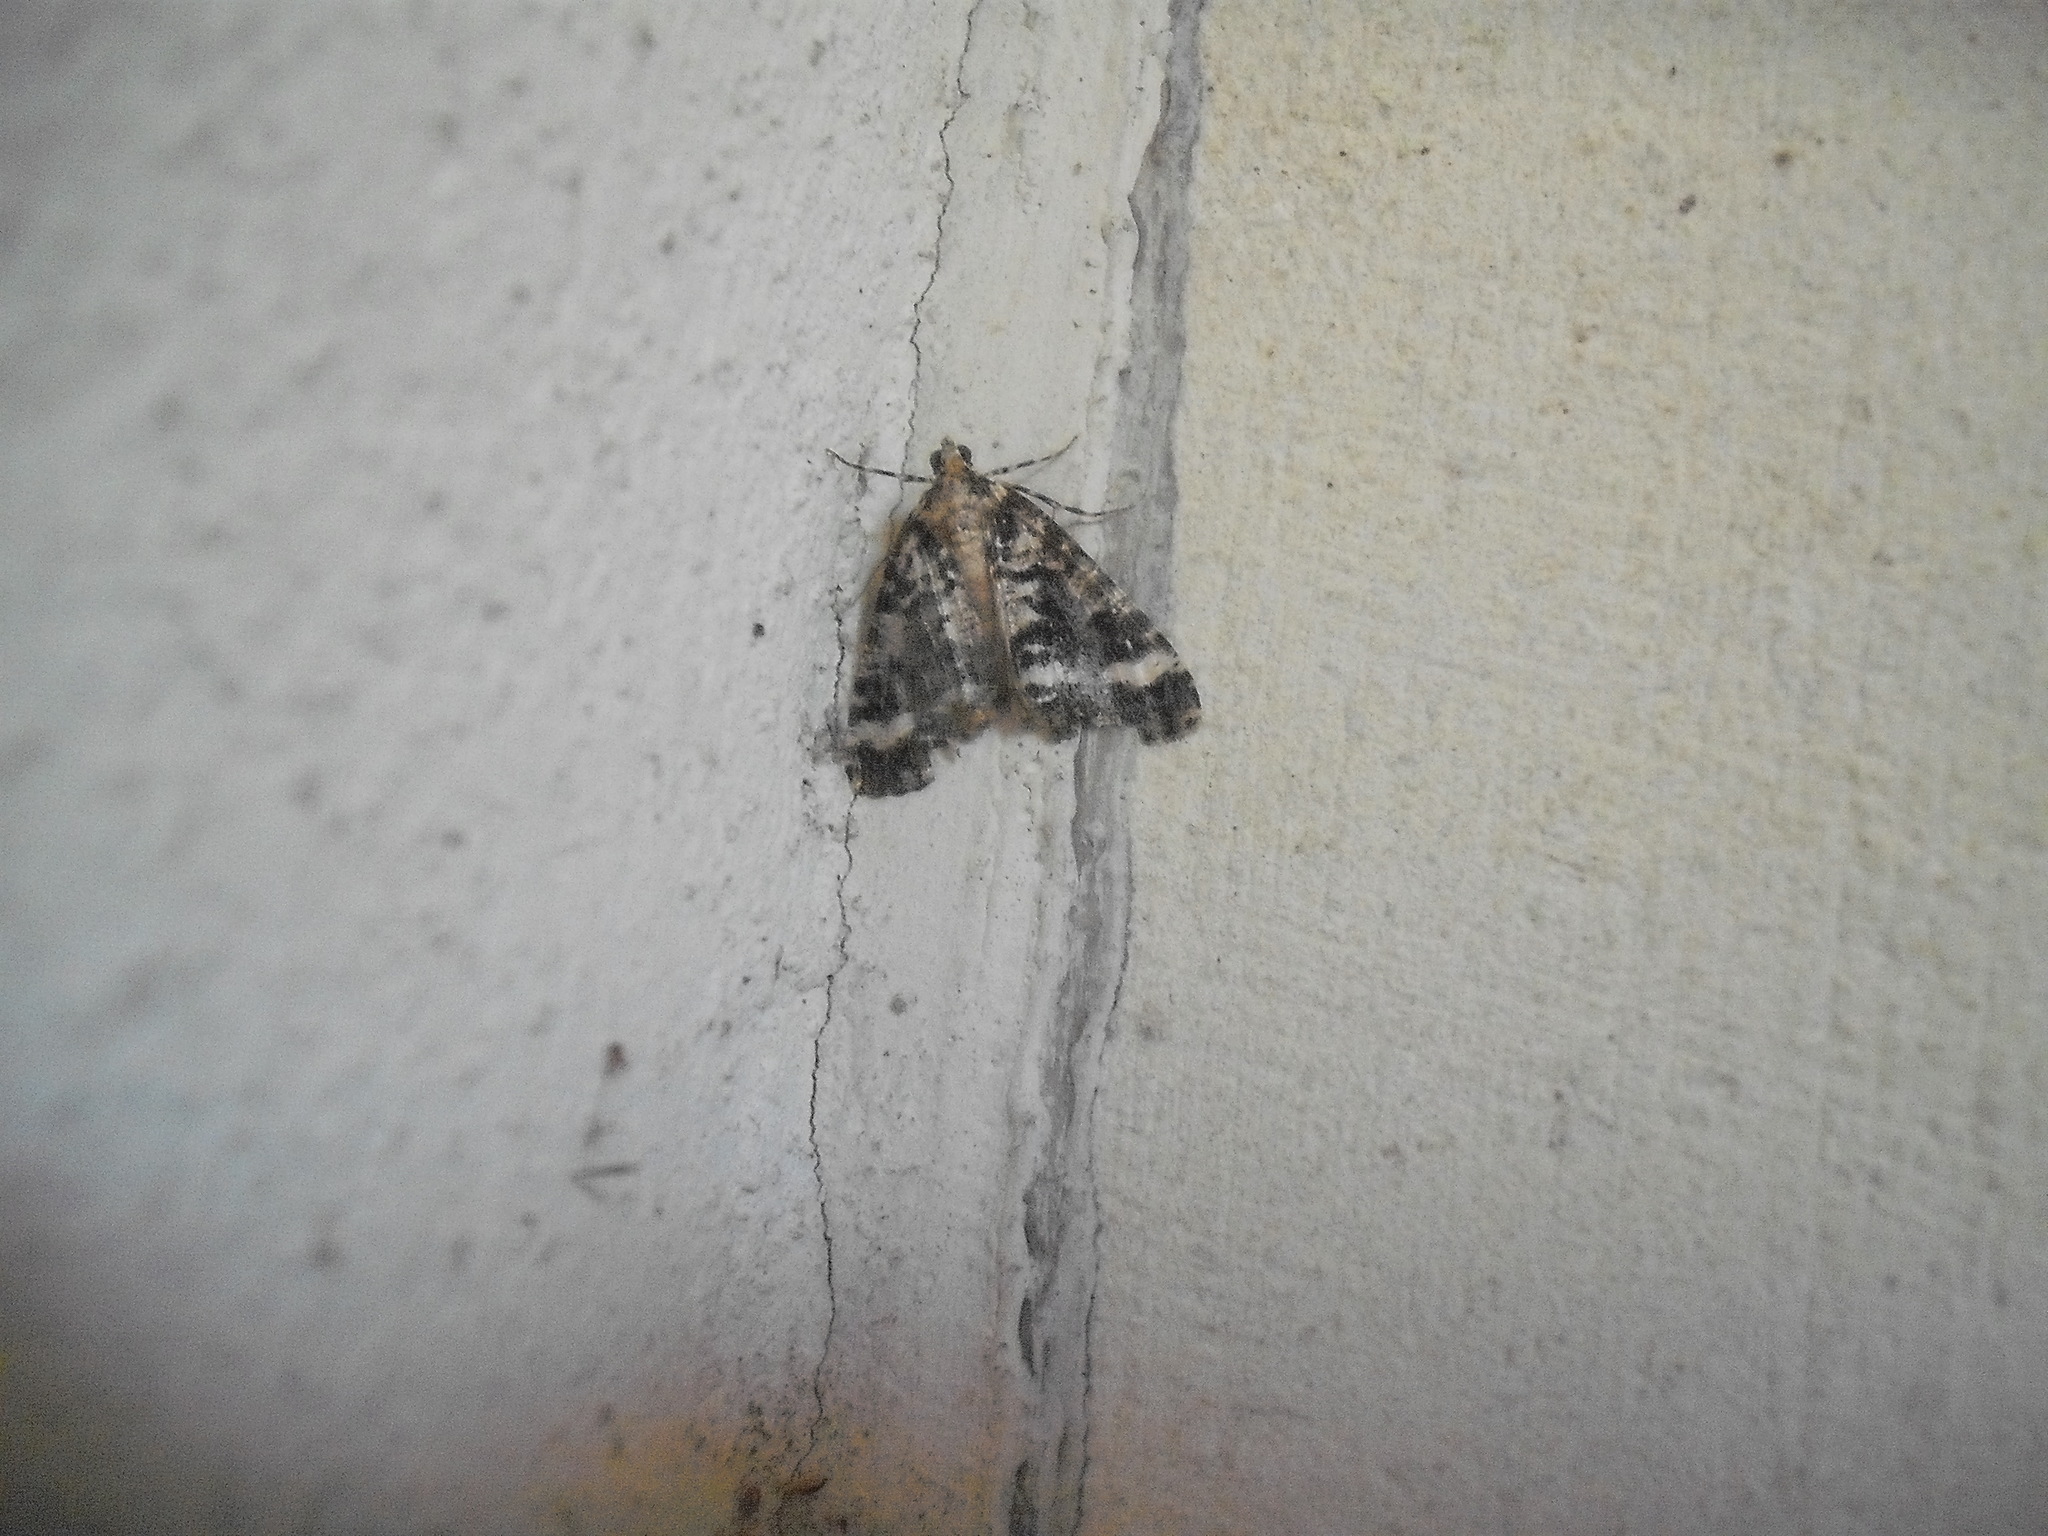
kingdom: Animalia
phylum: Arthropoda
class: Insecta
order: Lepidoptera
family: Geometridae
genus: Pseudocoremia
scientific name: Pseudocoremia leucelaea
